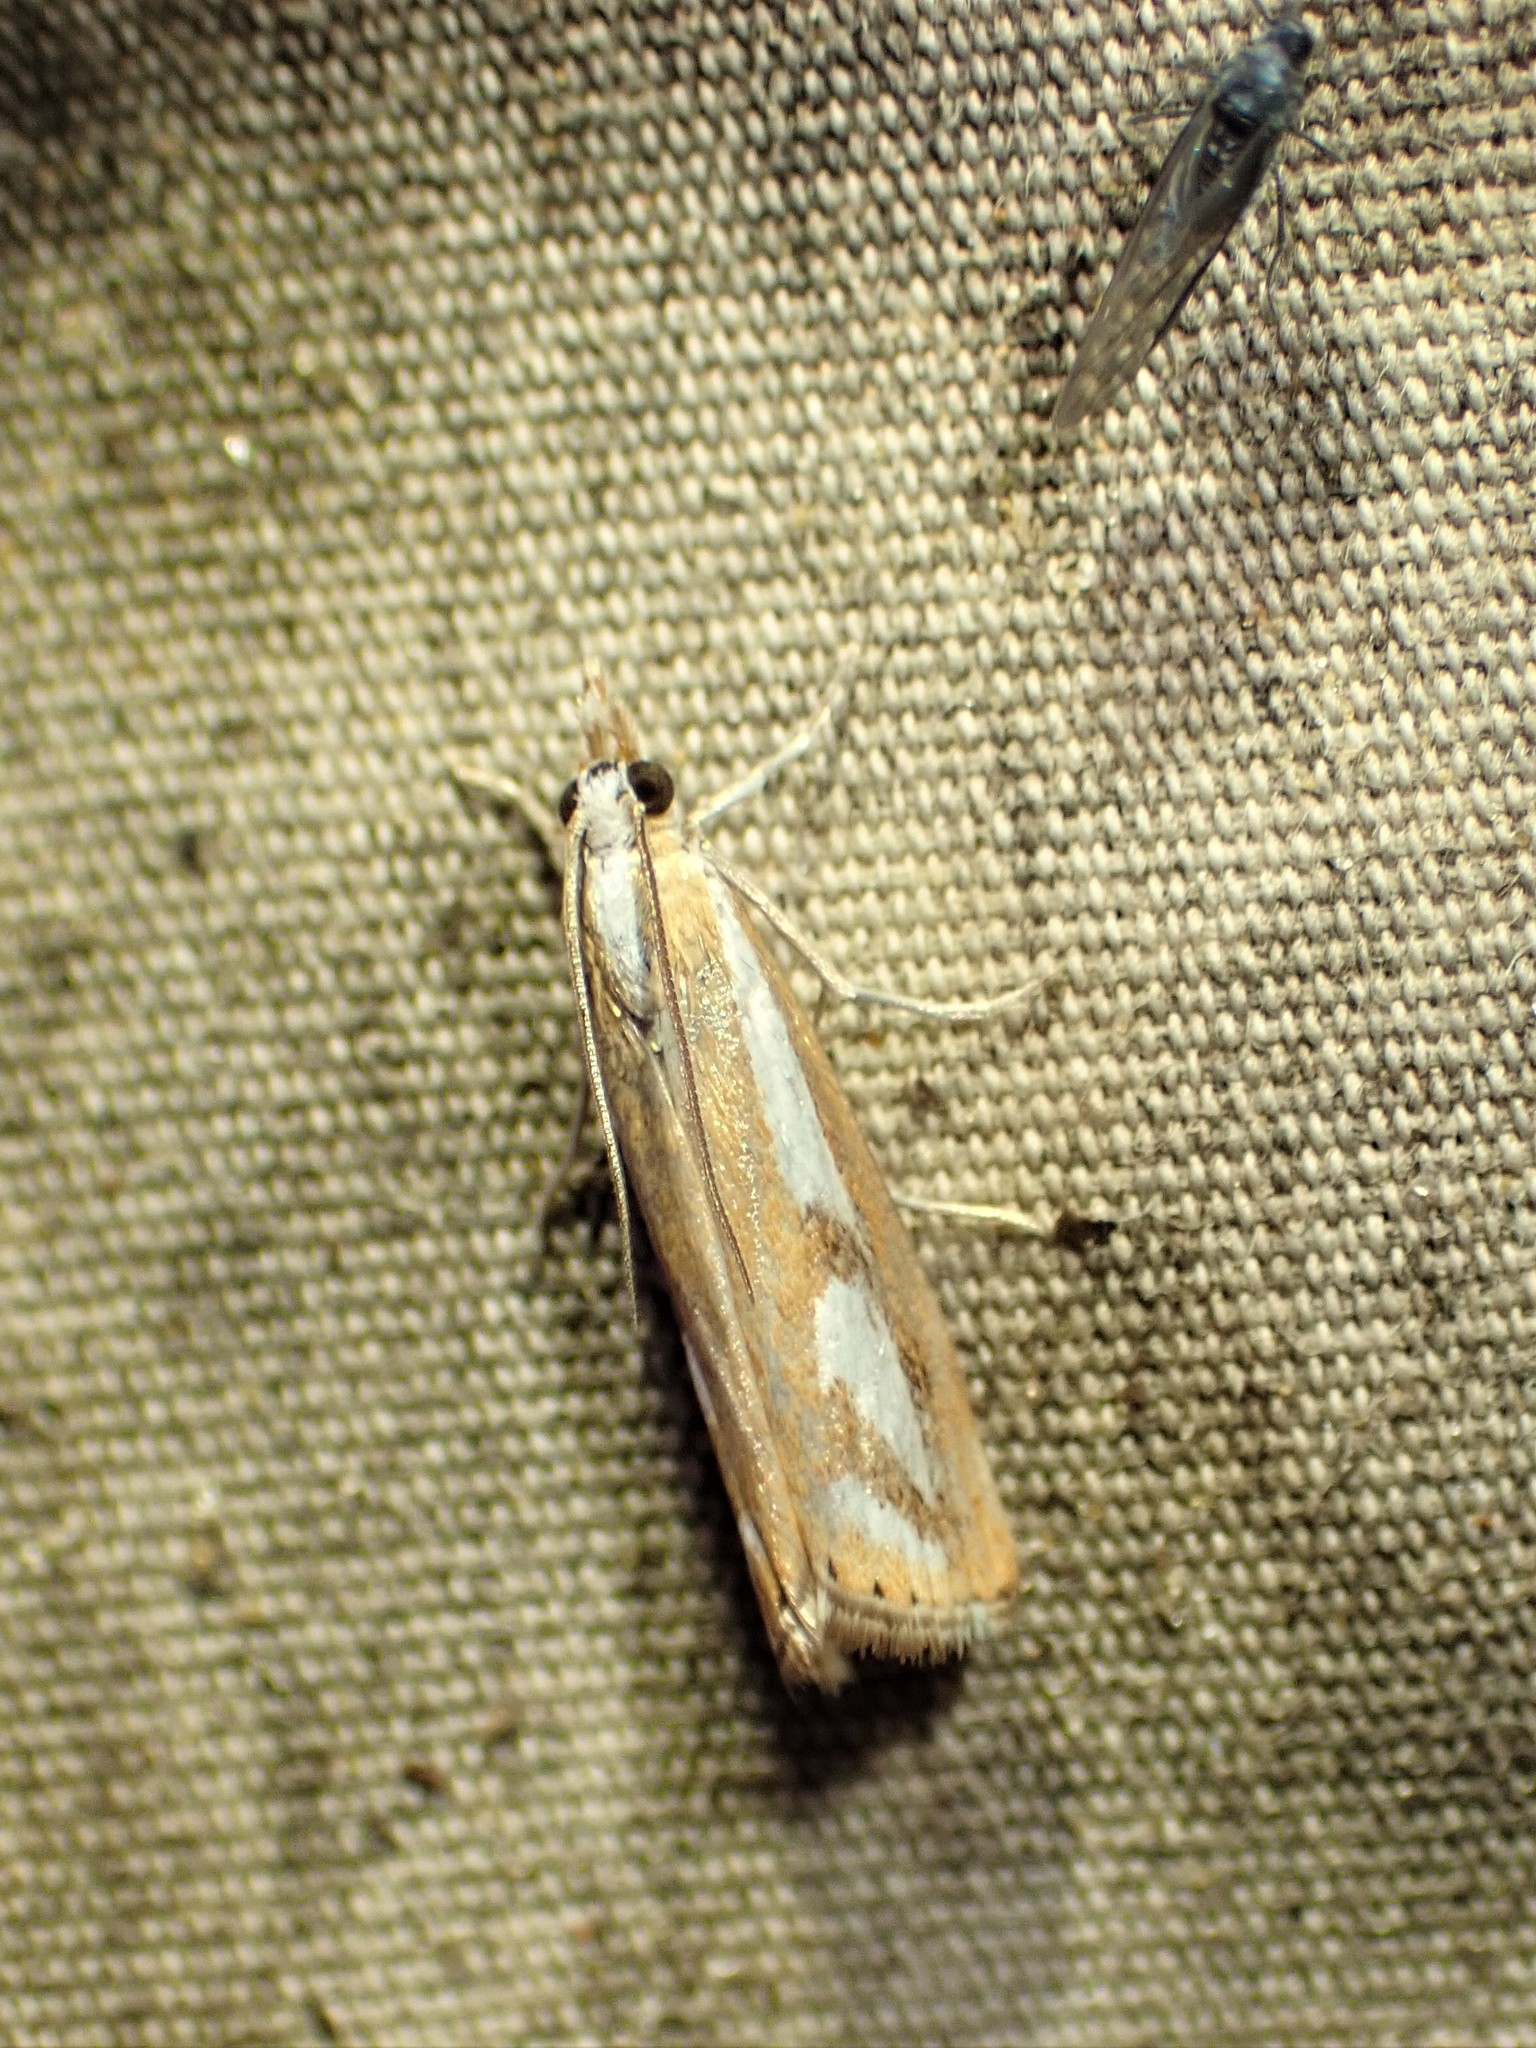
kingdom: Animalia
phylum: Arthropoda
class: Insecta
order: Lepidoptera
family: Crambidae
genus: Catoptria
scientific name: Catoptria latiradiellus
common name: Two-banded catoptria moth
